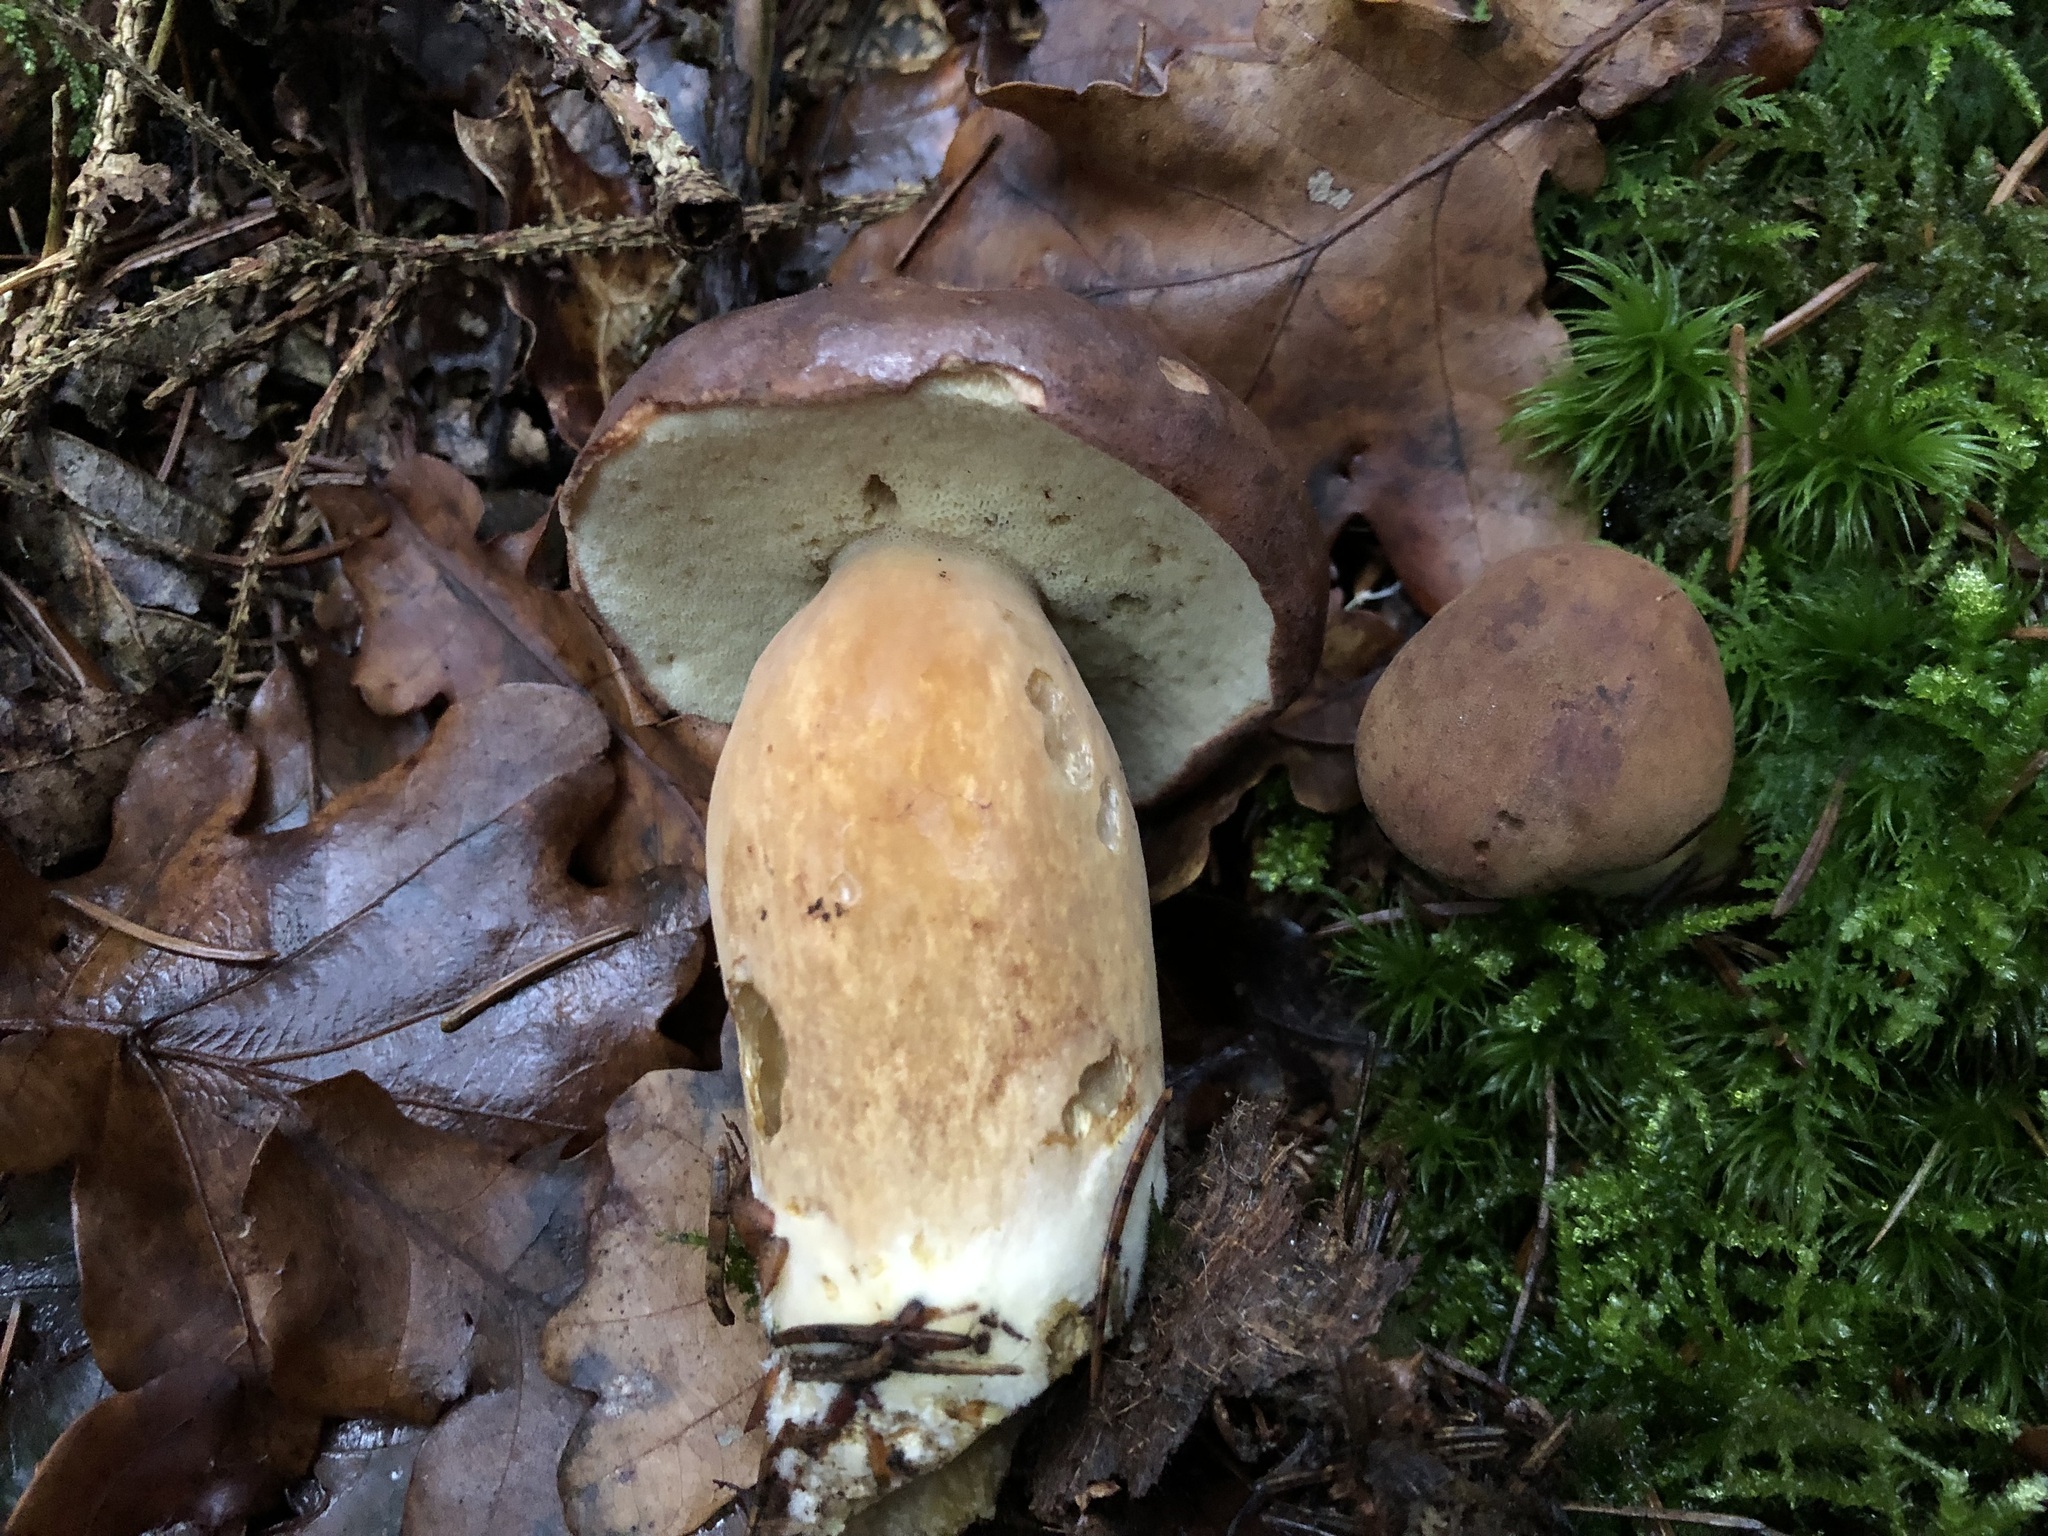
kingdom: Fungi
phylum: Basidiomycota
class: Agaricomycetes
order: Boletales
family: Boletaceae
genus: Imleria
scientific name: Imleria badia
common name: Bay bolete
